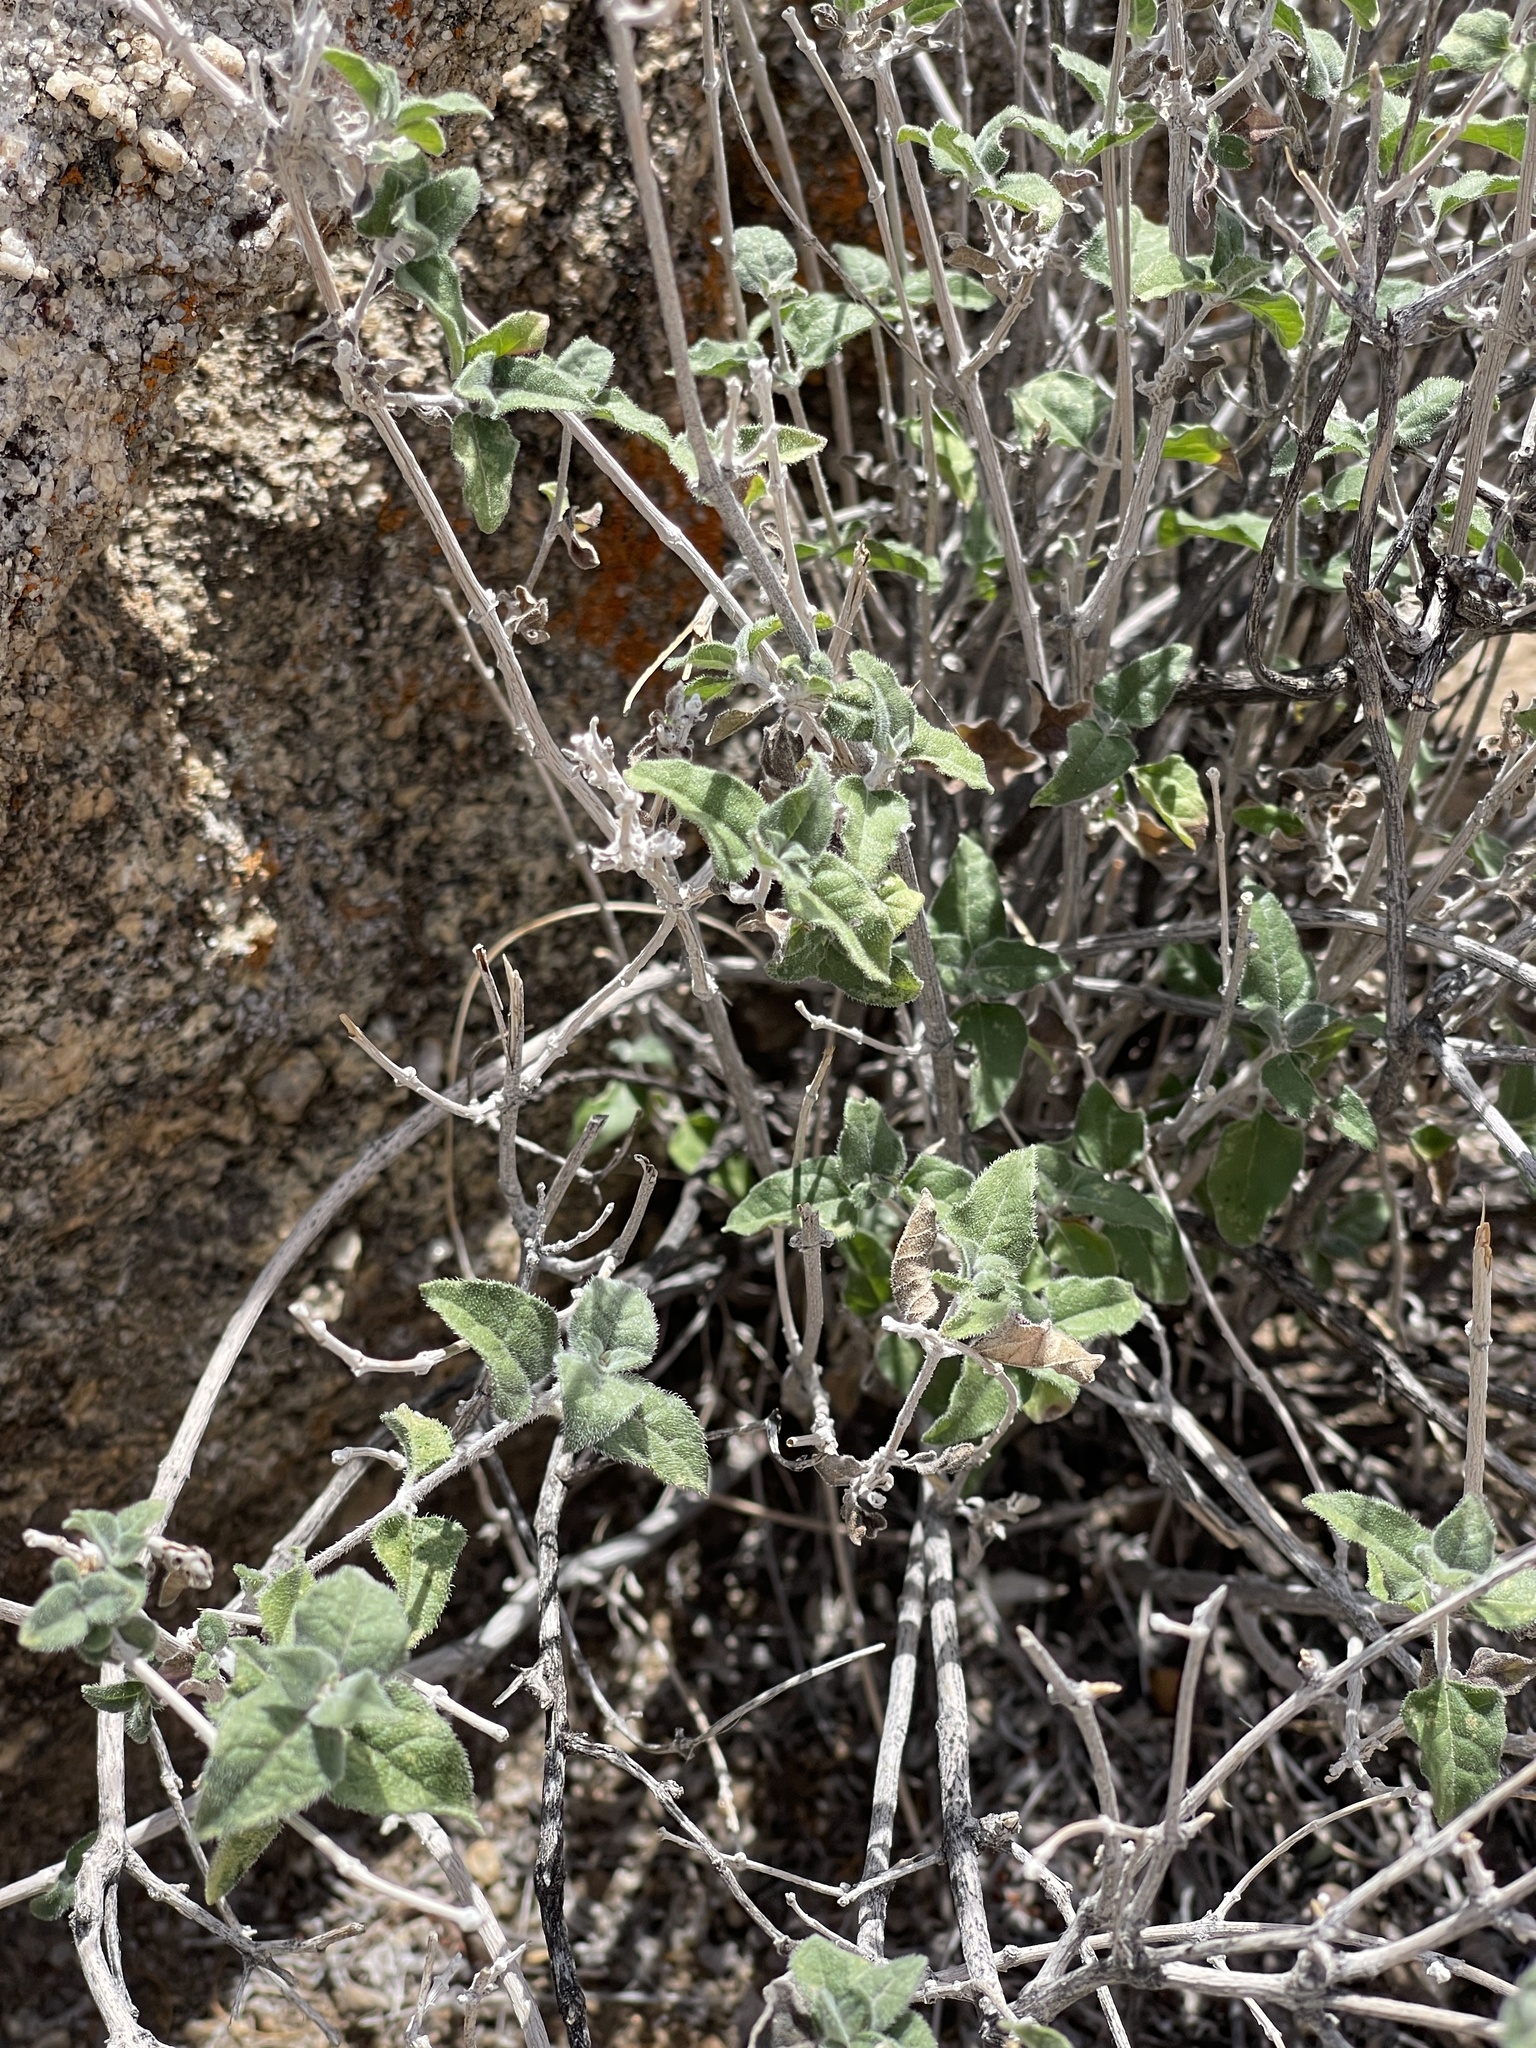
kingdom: Plantae
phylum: Tracheophyta
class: Magnoliopsida
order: Asterales
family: Asteraceae
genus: Bahiopsis
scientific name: Bahiopsis parishii
